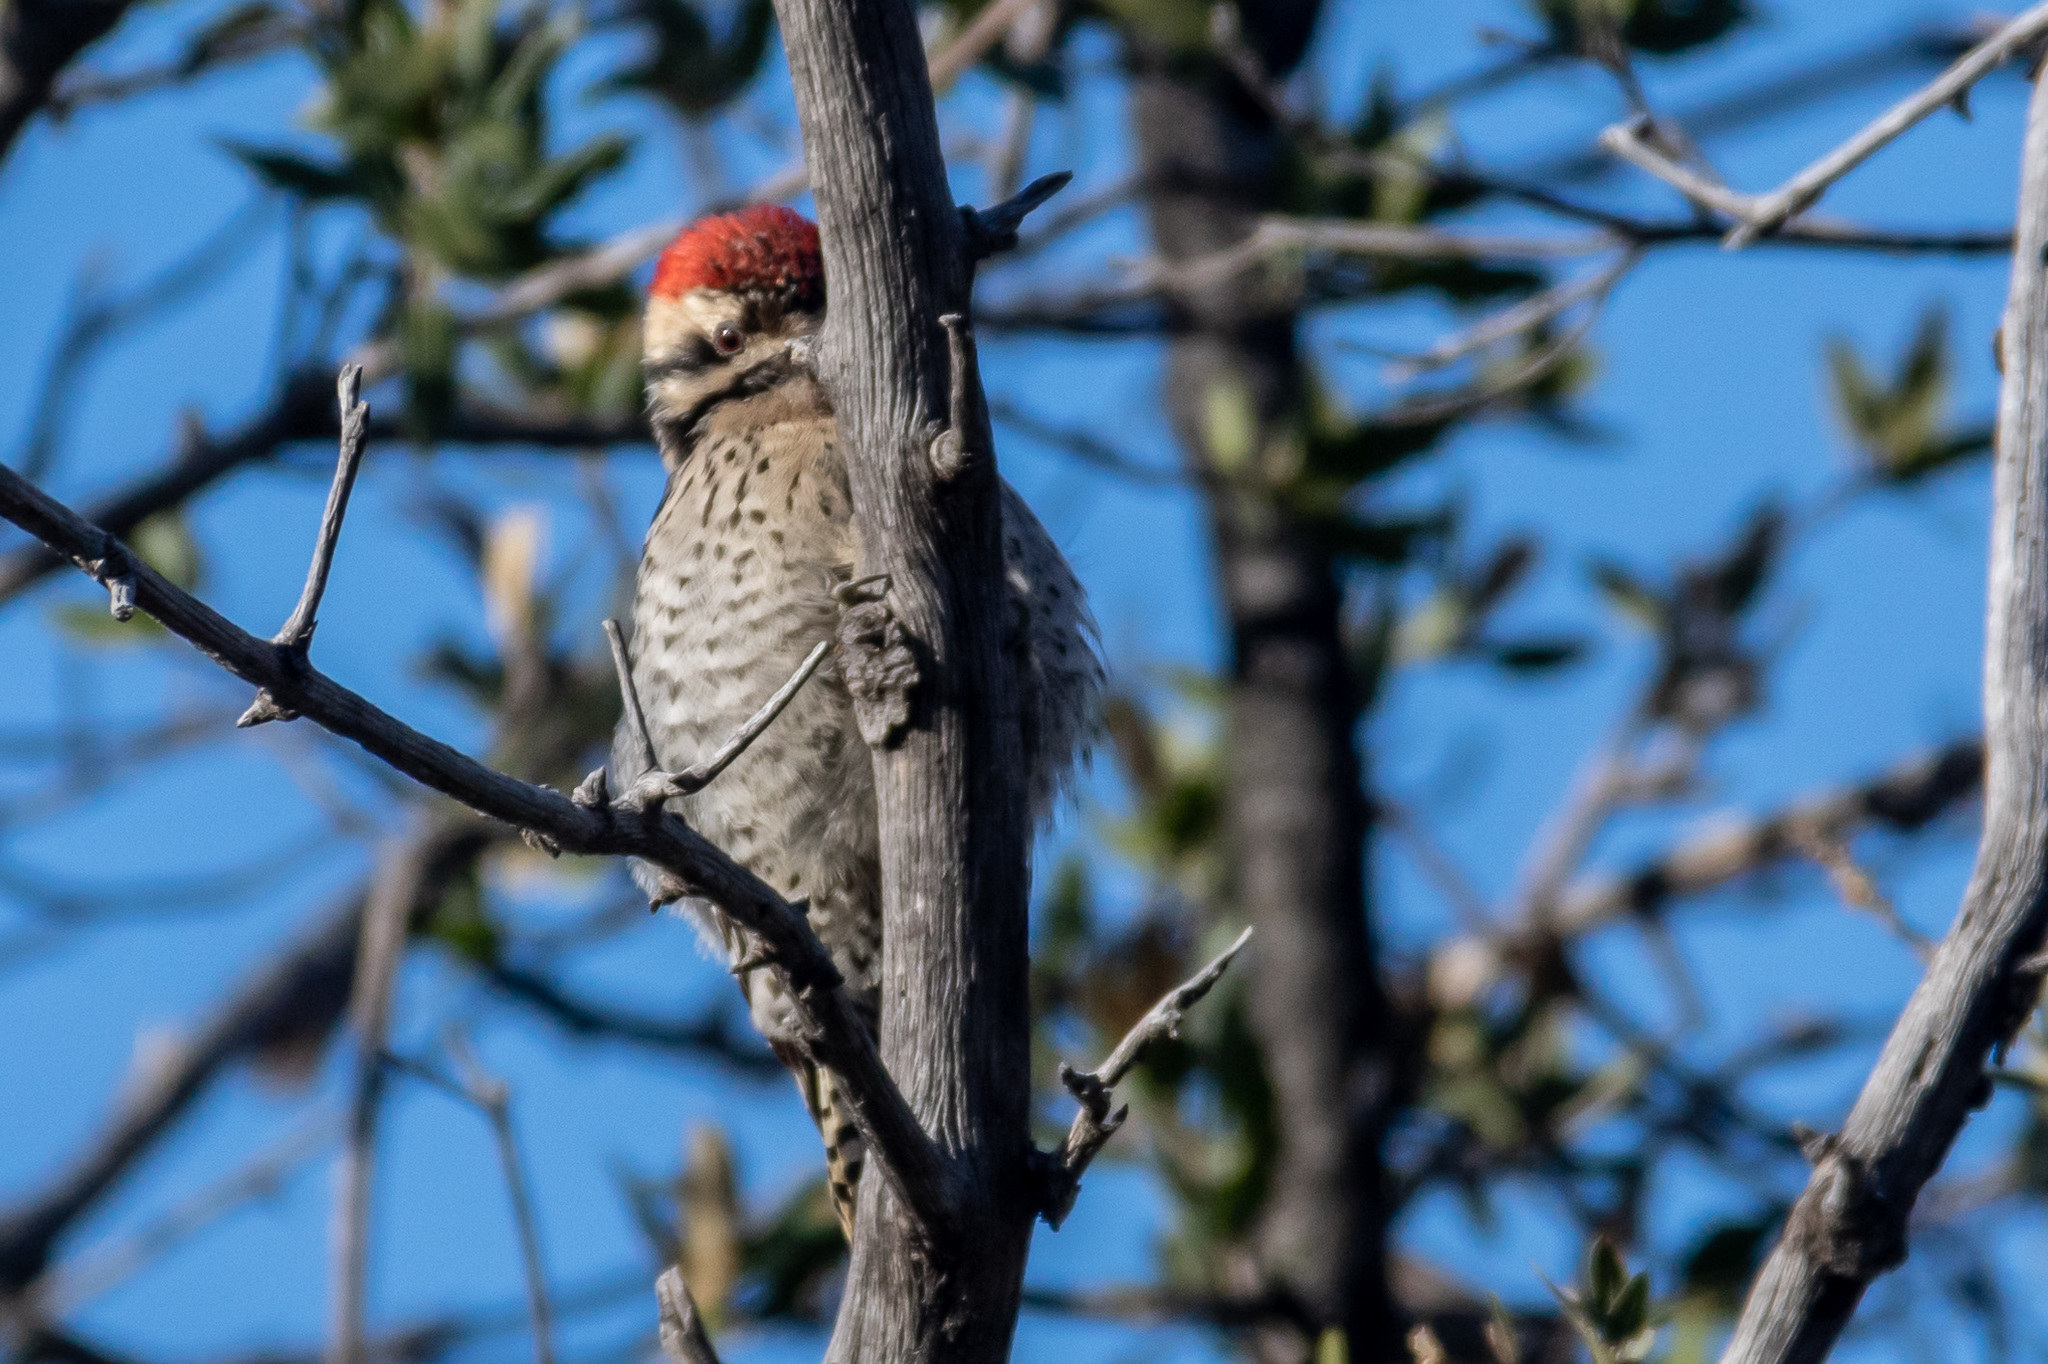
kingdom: Animalia
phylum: Chordata
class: Aves
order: Piciformes
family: Picidae
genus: Dryobates
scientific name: Dryobates scalaris
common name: Ladder-backed woodpecker
